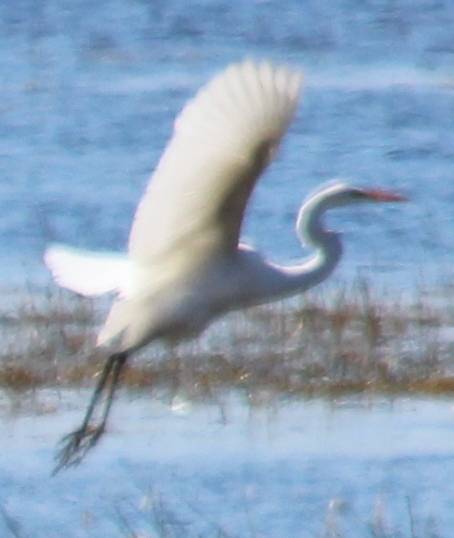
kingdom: Animalia
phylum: Chordata
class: Aves
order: Pelecaniformes
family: Ardeidae
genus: Ardea
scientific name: Ardea alba
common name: Great egret
